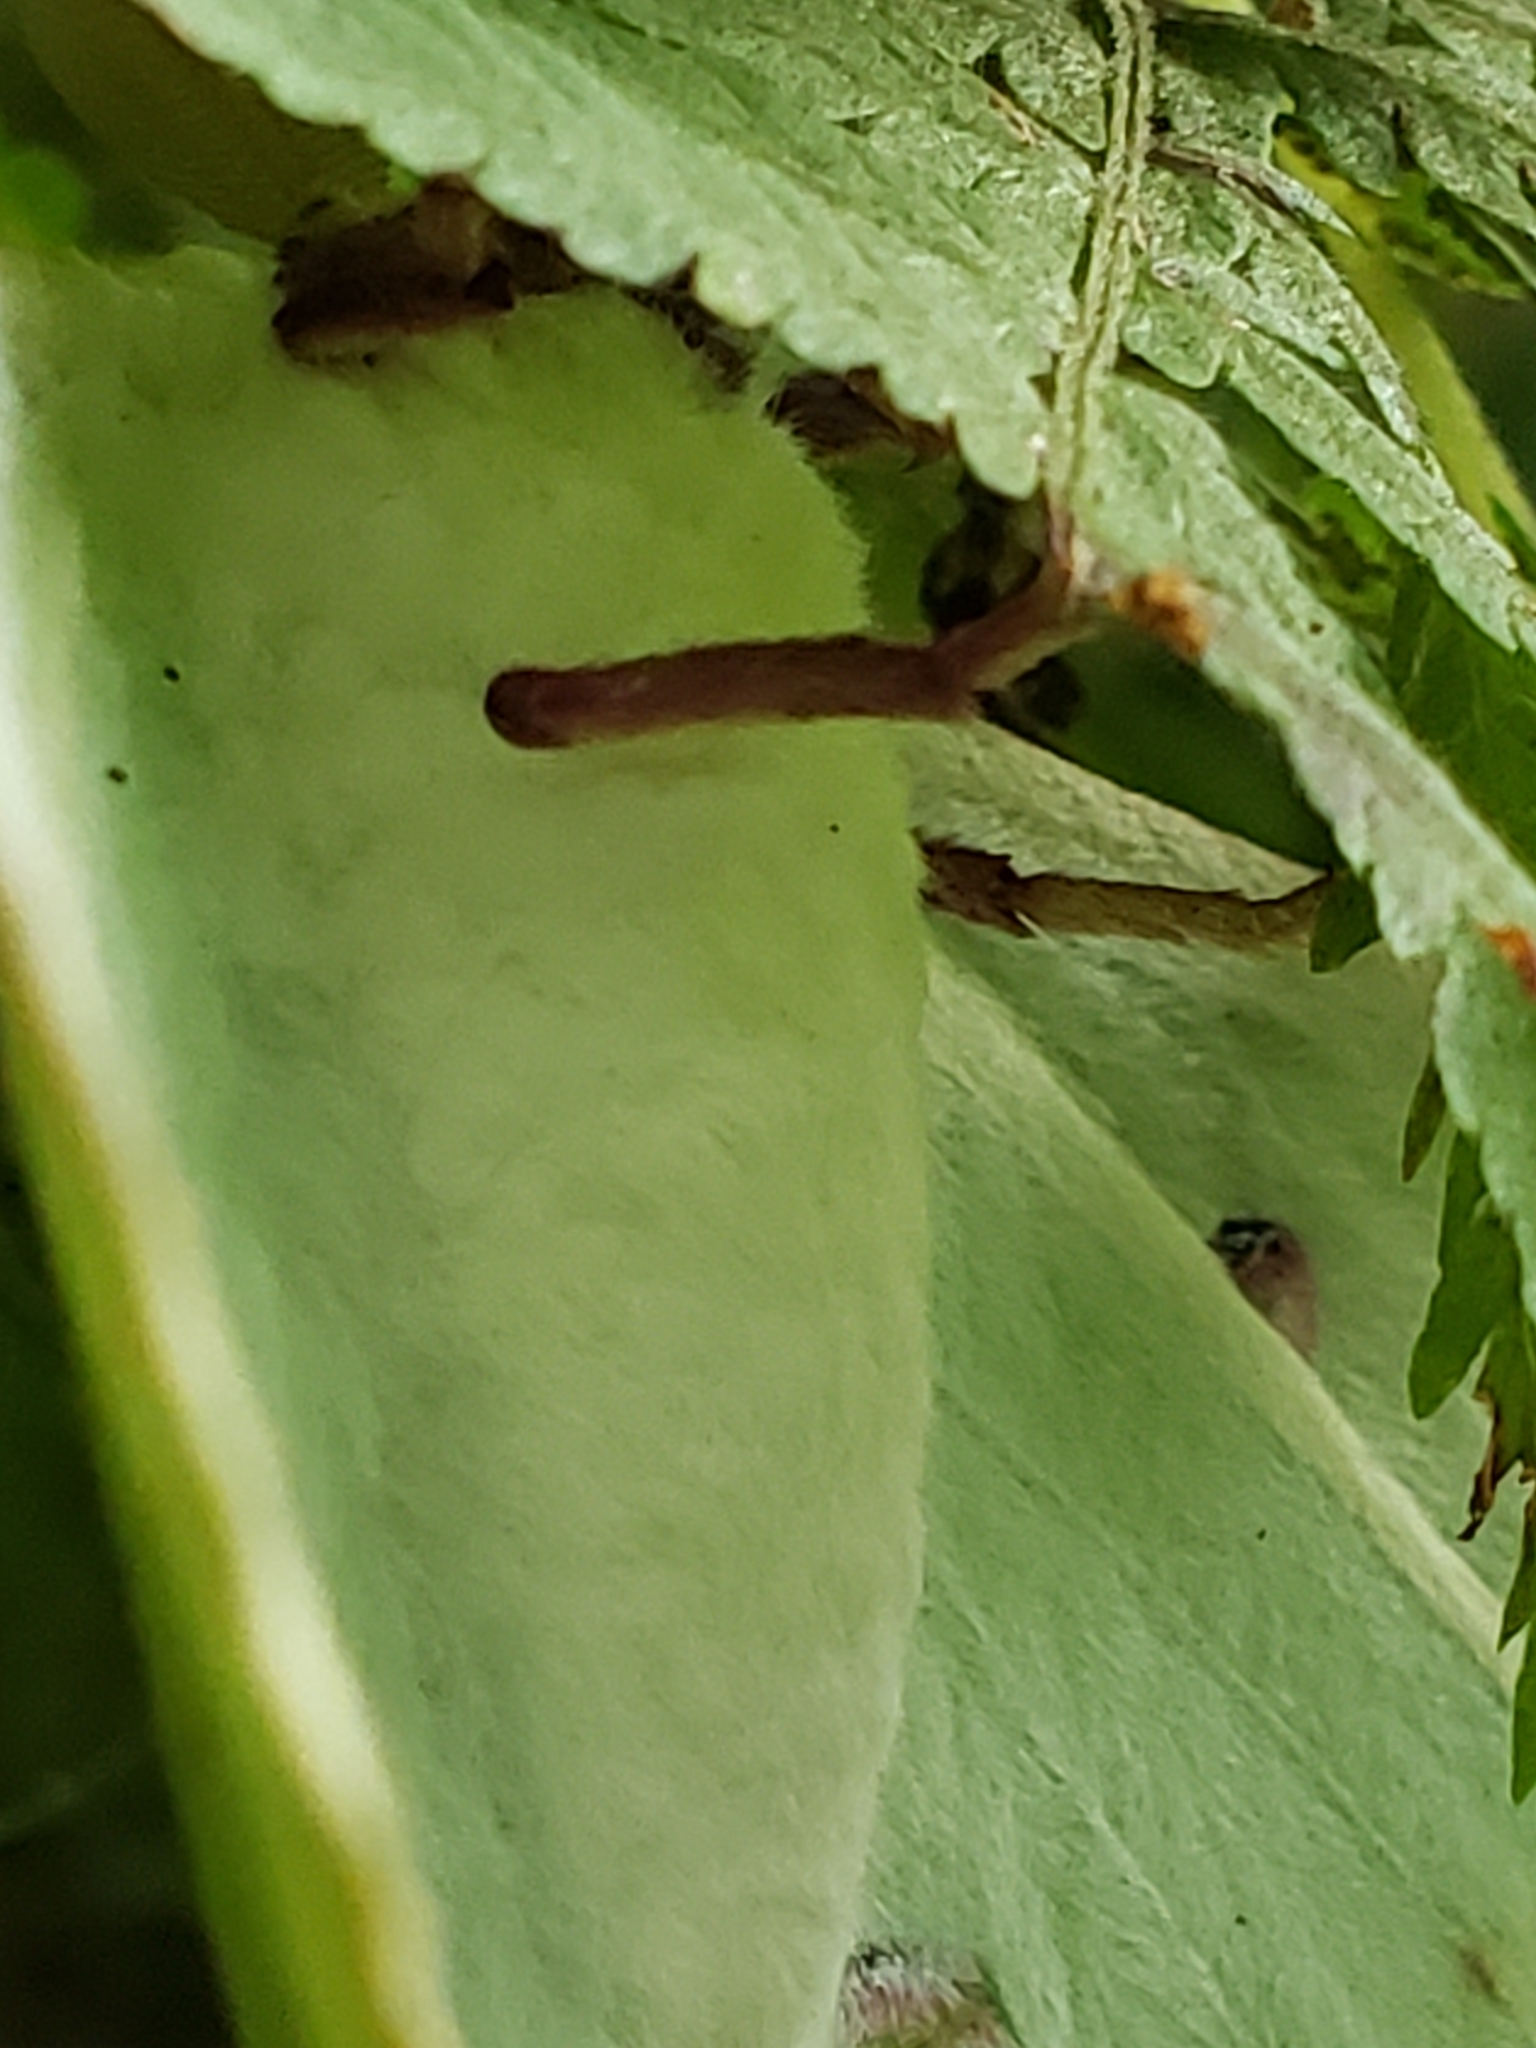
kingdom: Animalia
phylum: Arthropoda
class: Insecta
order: Lepidoptera
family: Saturniidae
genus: Actias
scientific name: Actias luna
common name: Luna moth
